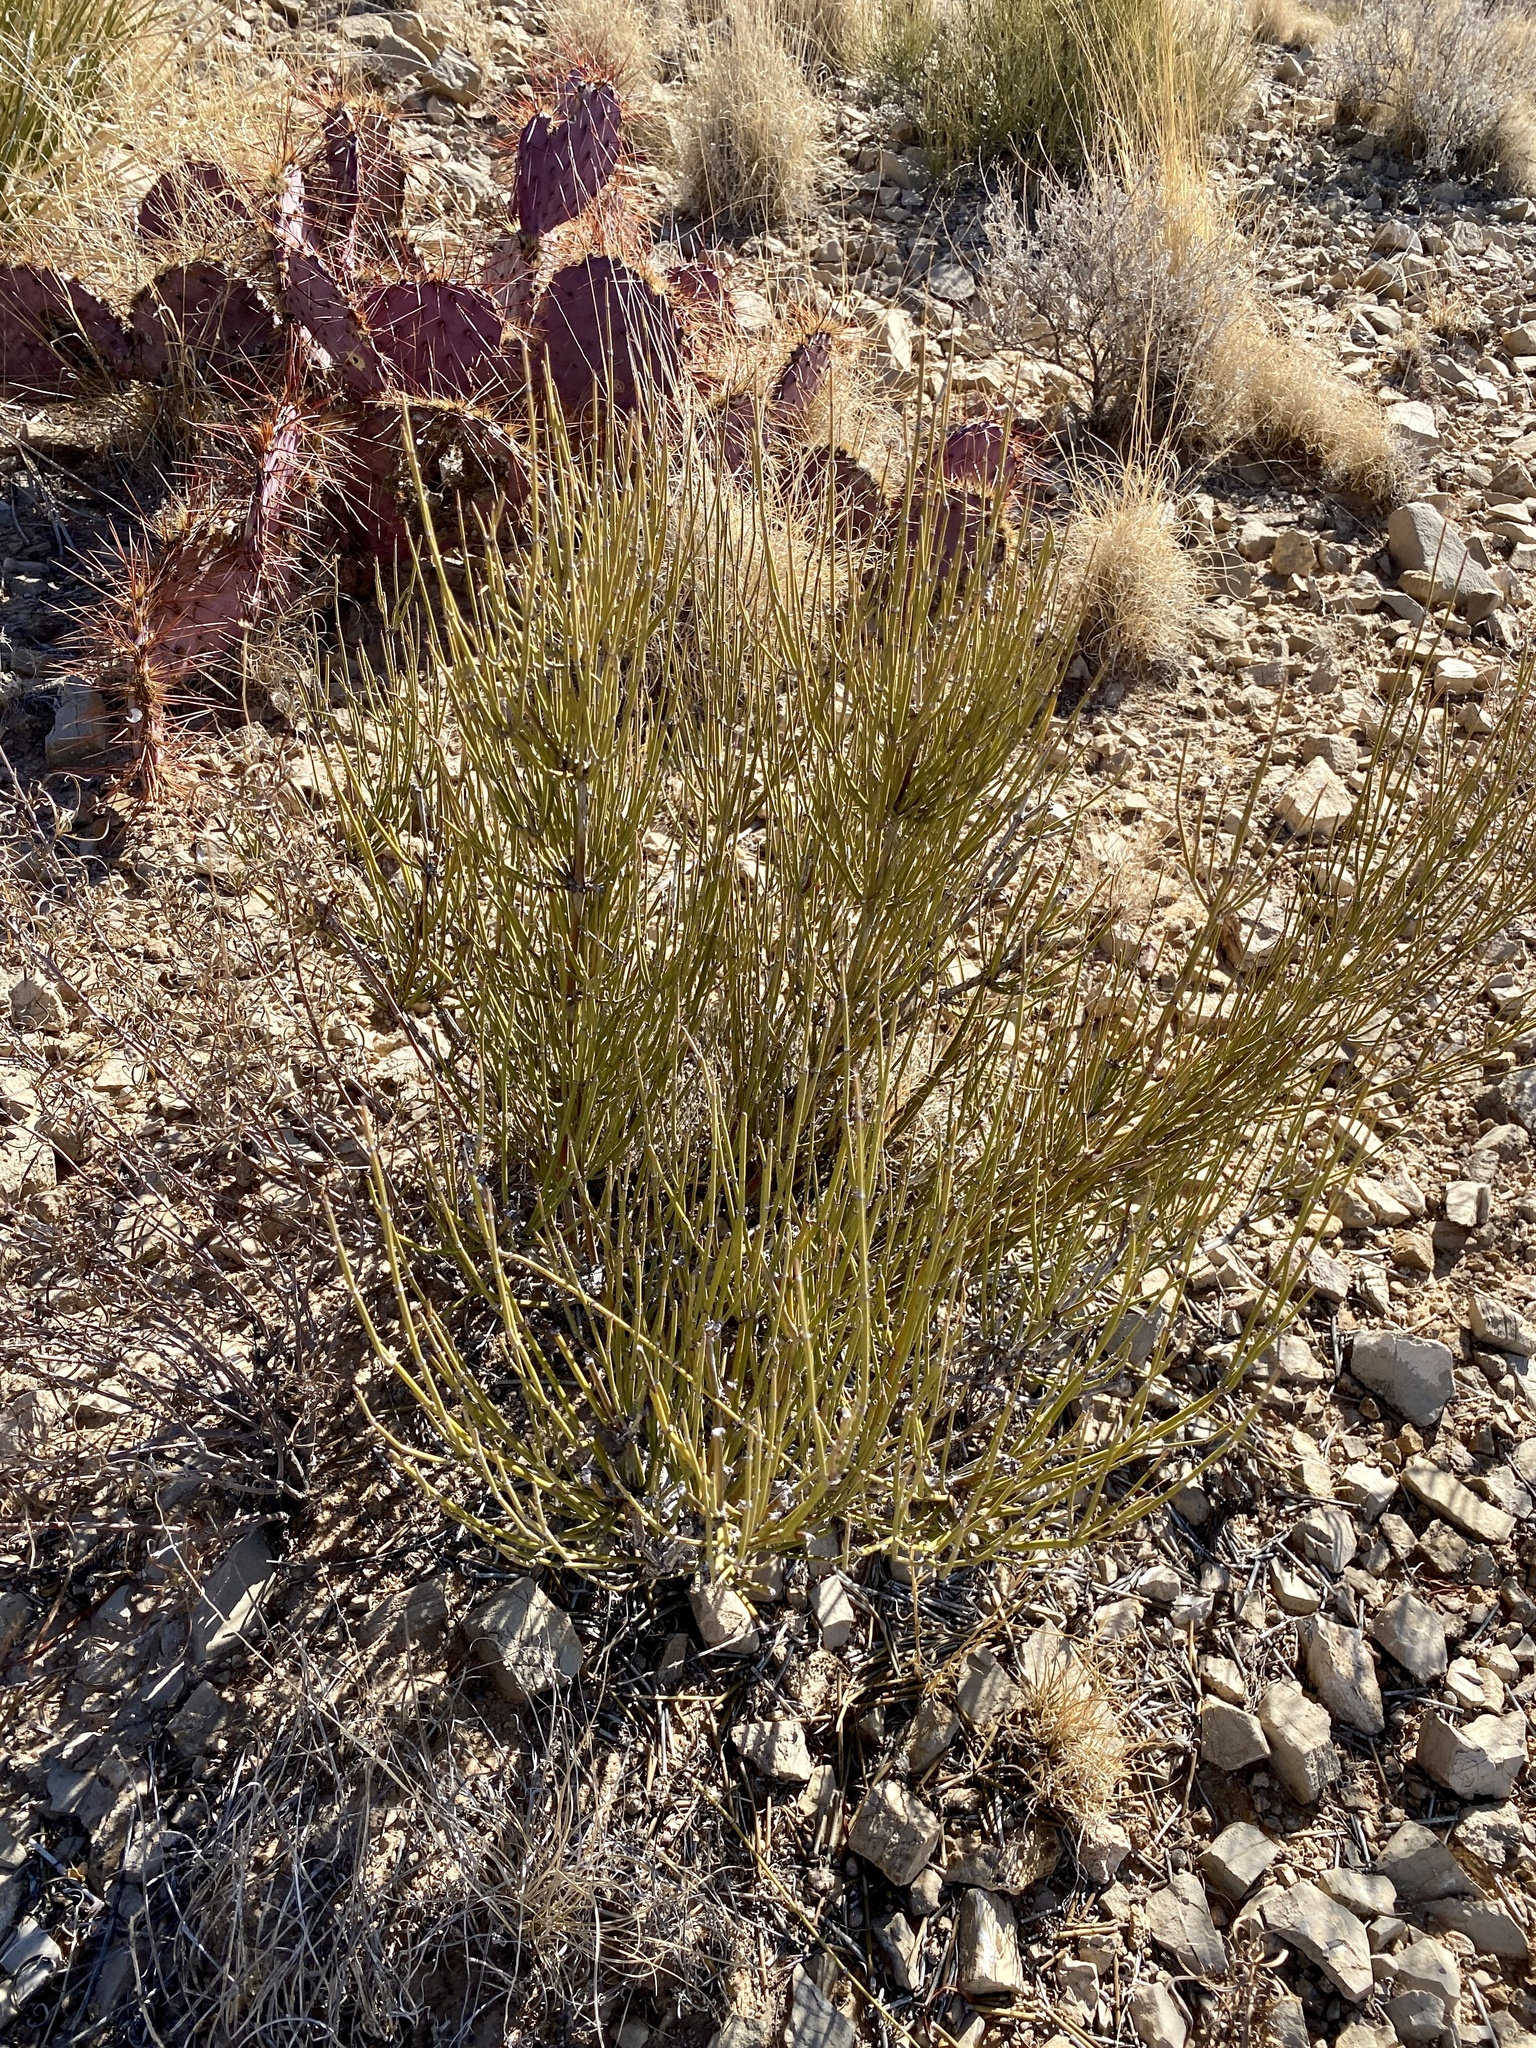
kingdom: Plantae
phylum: Tracheophyta
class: Gnetopsida
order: Ephedrales
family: Ephedraceae
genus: Ephedra
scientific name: Ephedra trifurca
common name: Mexican-tea
